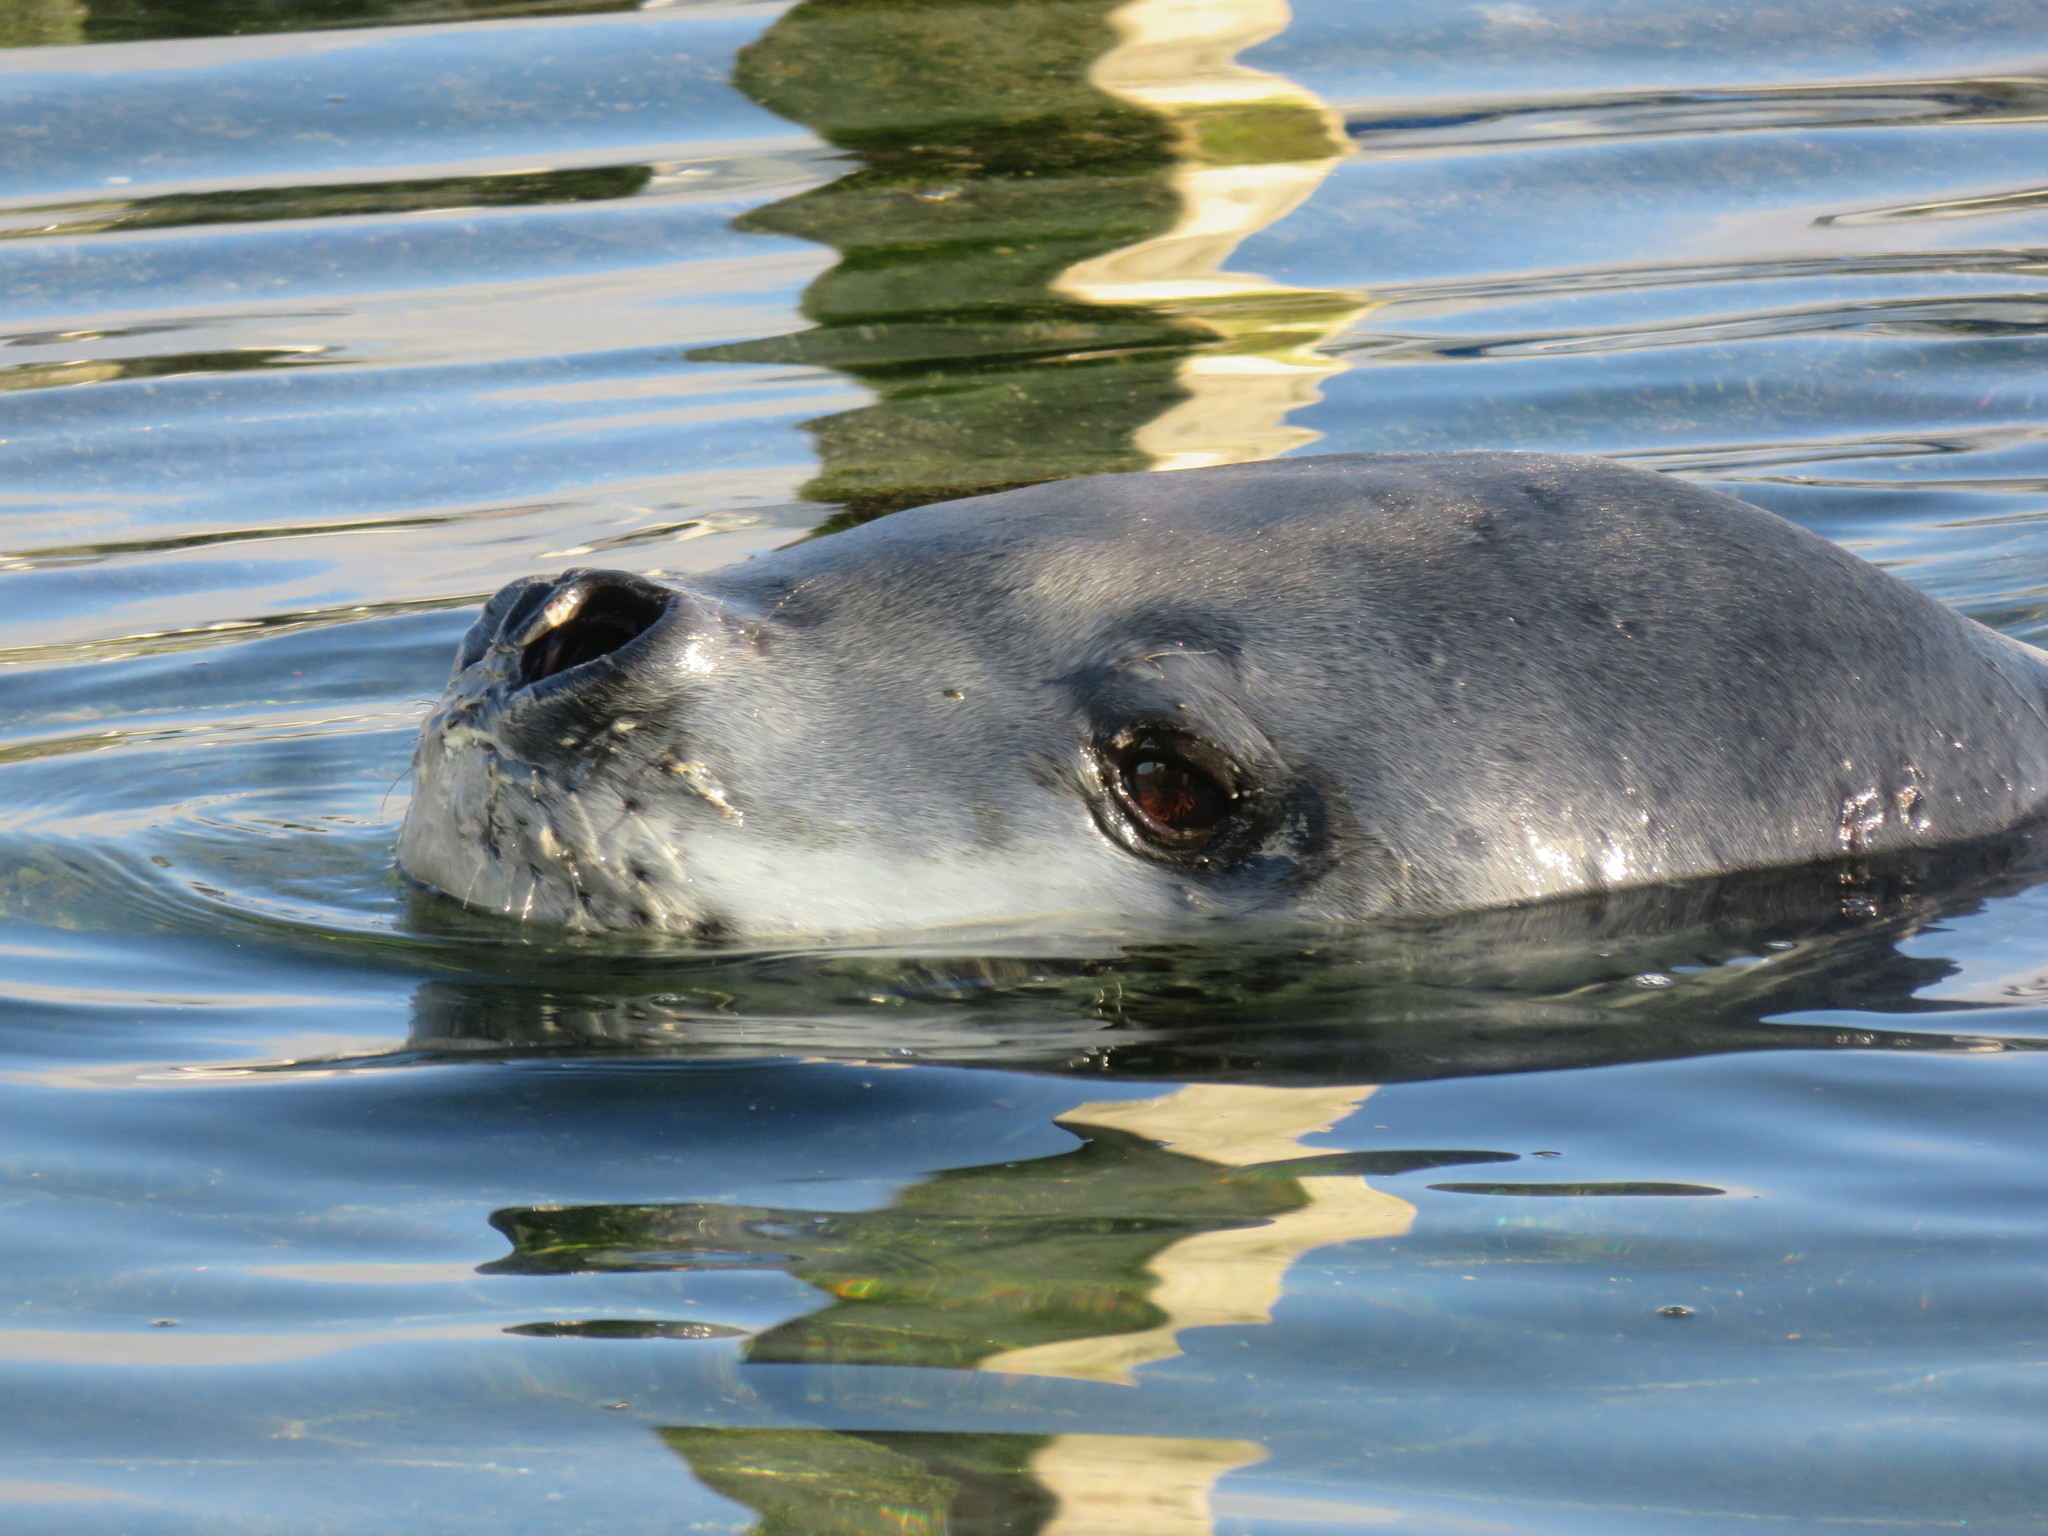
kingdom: Animalia
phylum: Chordata
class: Mammalia
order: Carnivora
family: Phocidae
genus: Hydrurga
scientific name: Hydrurga leptonyx
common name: Leopard seal
